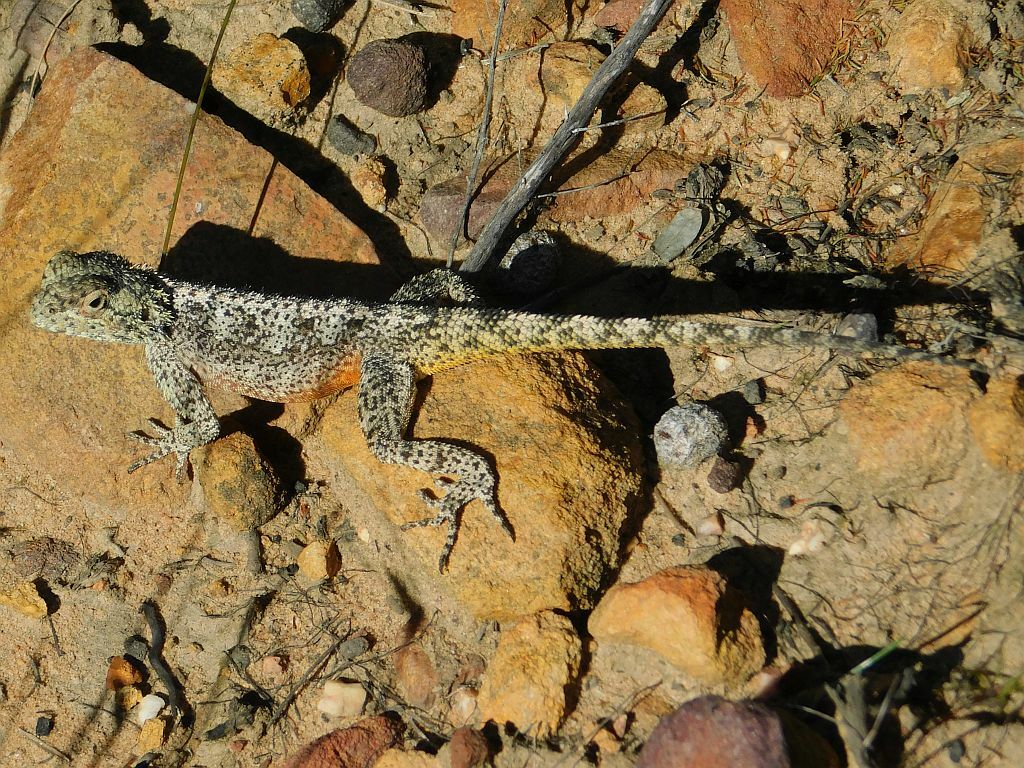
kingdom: Animalia
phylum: Chordata
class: Squamata
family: Agamidae
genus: Agama
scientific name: Agama atra
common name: Southern african rock agama
